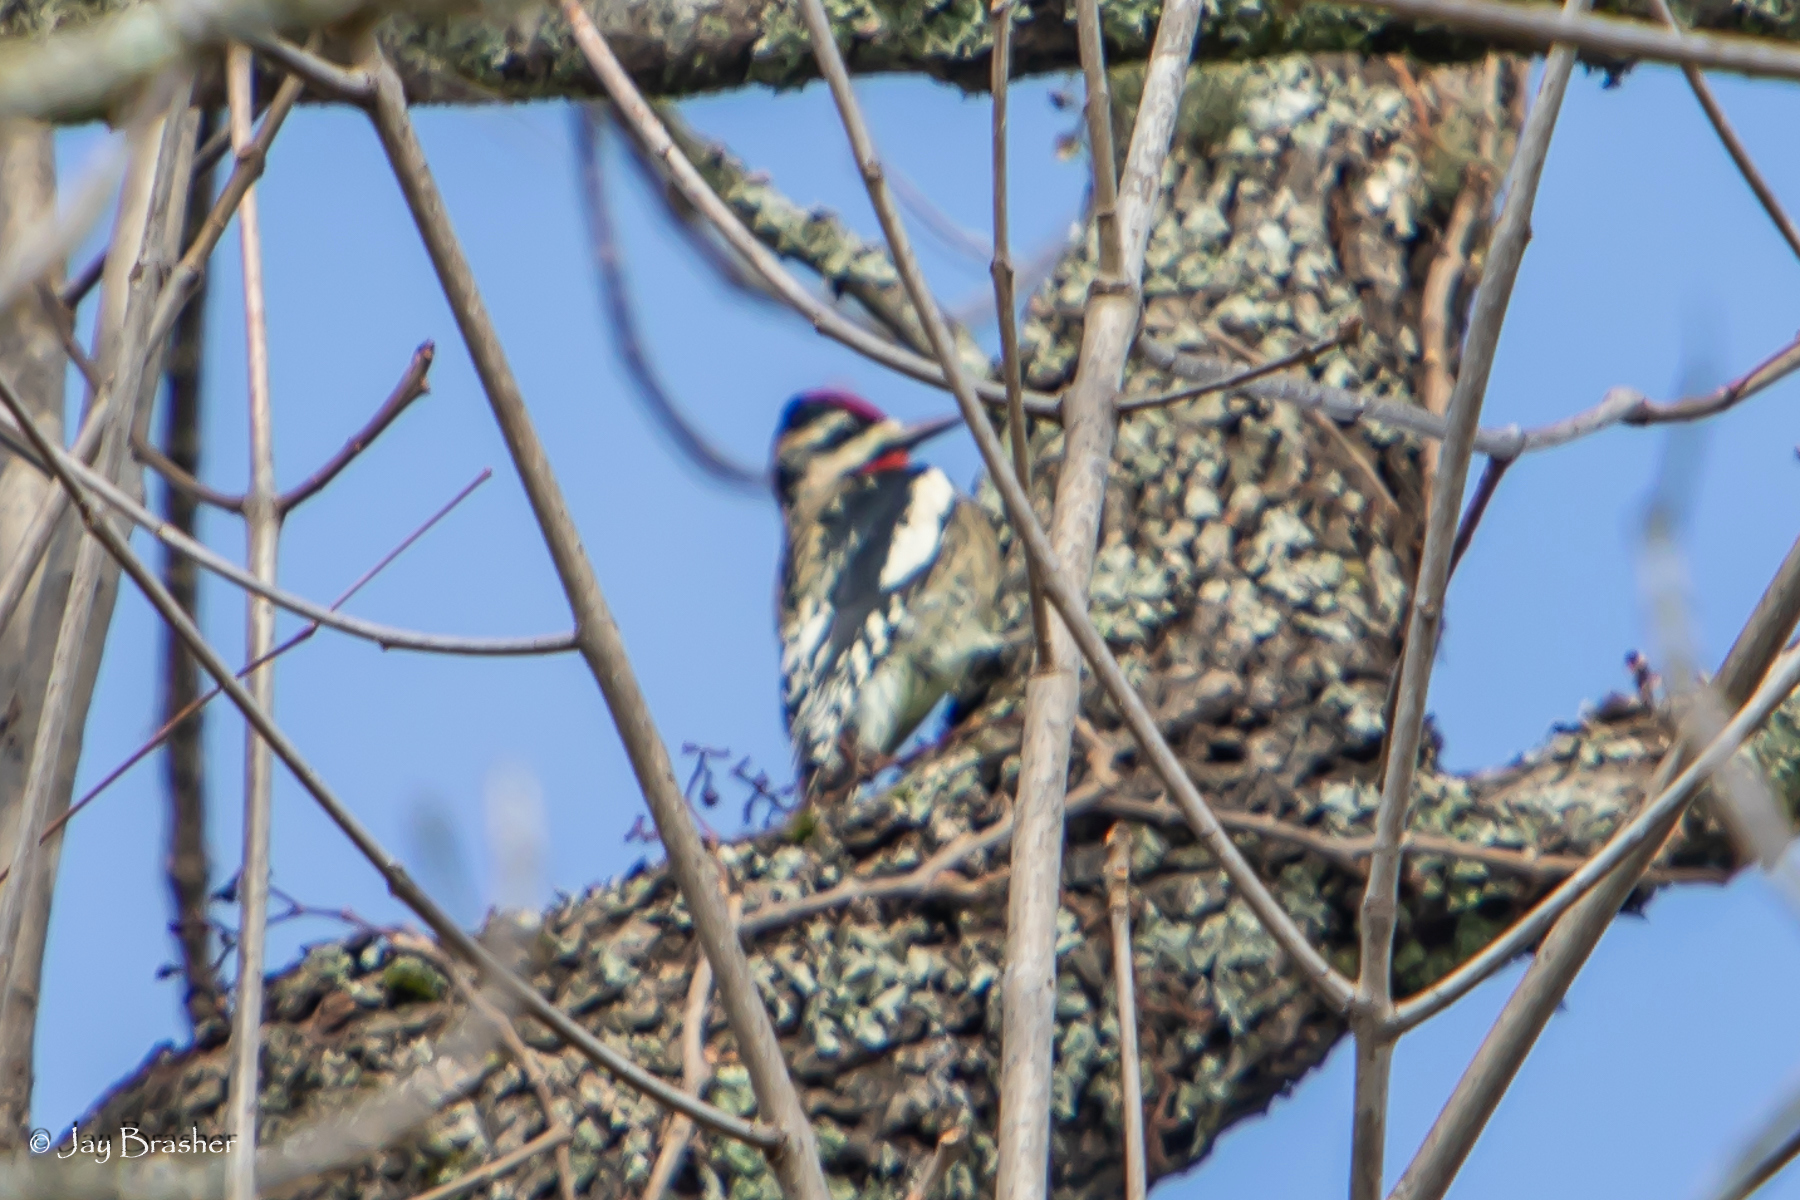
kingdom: Animalia
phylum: Chordata
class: Aves
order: Piciformes
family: Picidae
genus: Sphyrapicus
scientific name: Sphyrapicus varius
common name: Yellow-bellied sapsucker
